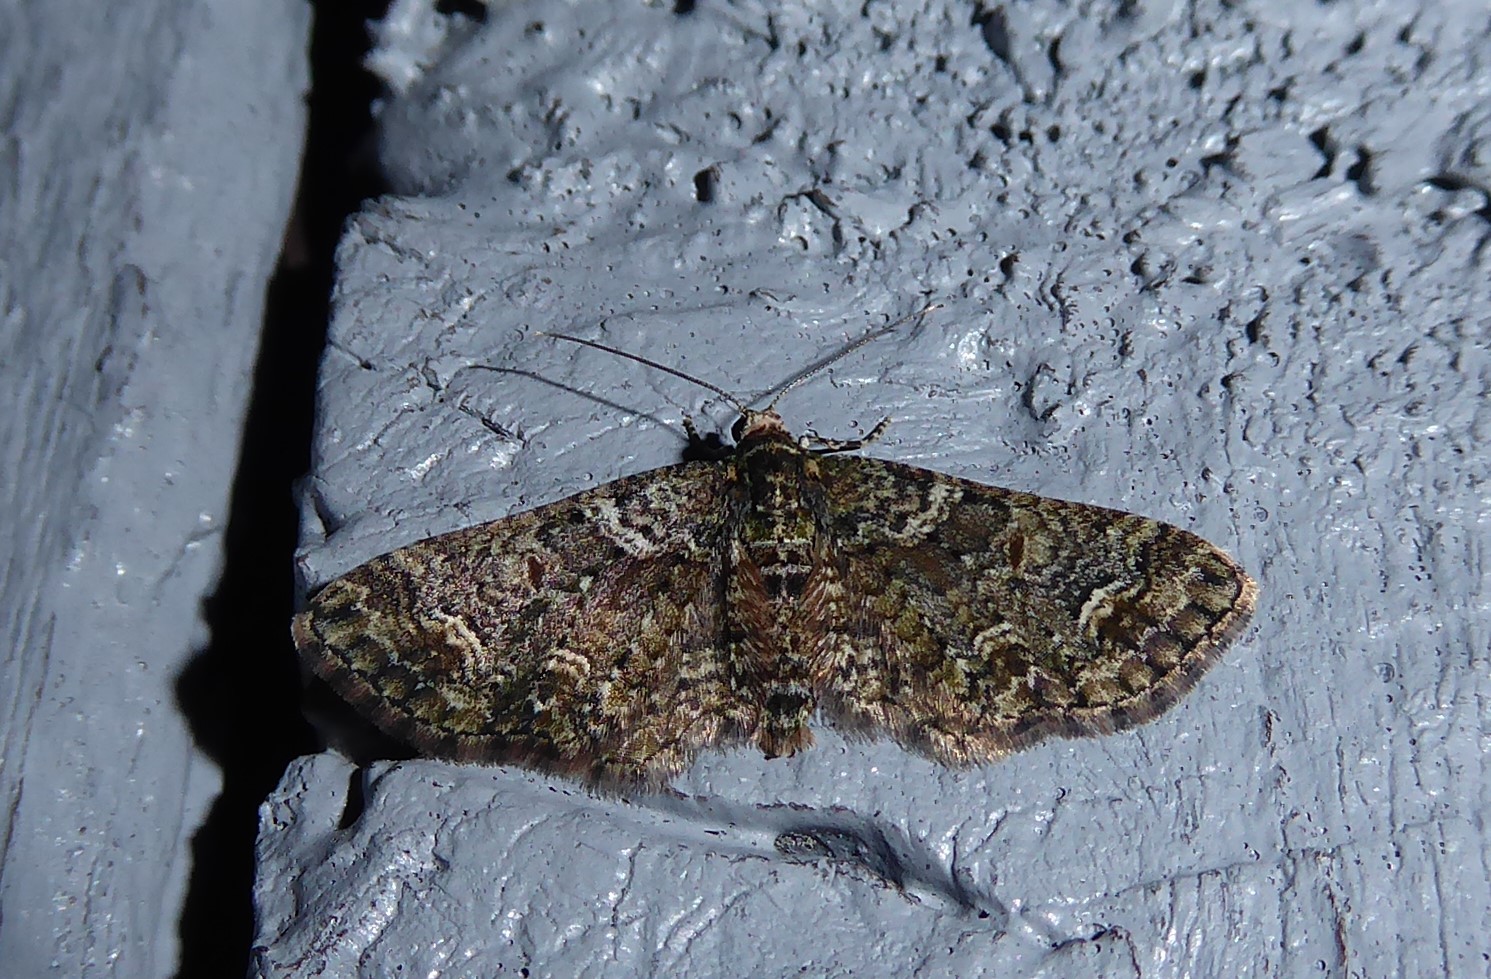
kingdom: Animalia
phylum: Arthropoda
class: Insecta
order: Lepidoptera
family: Geometridae
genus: Idaea
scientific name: Idaea mutanda
